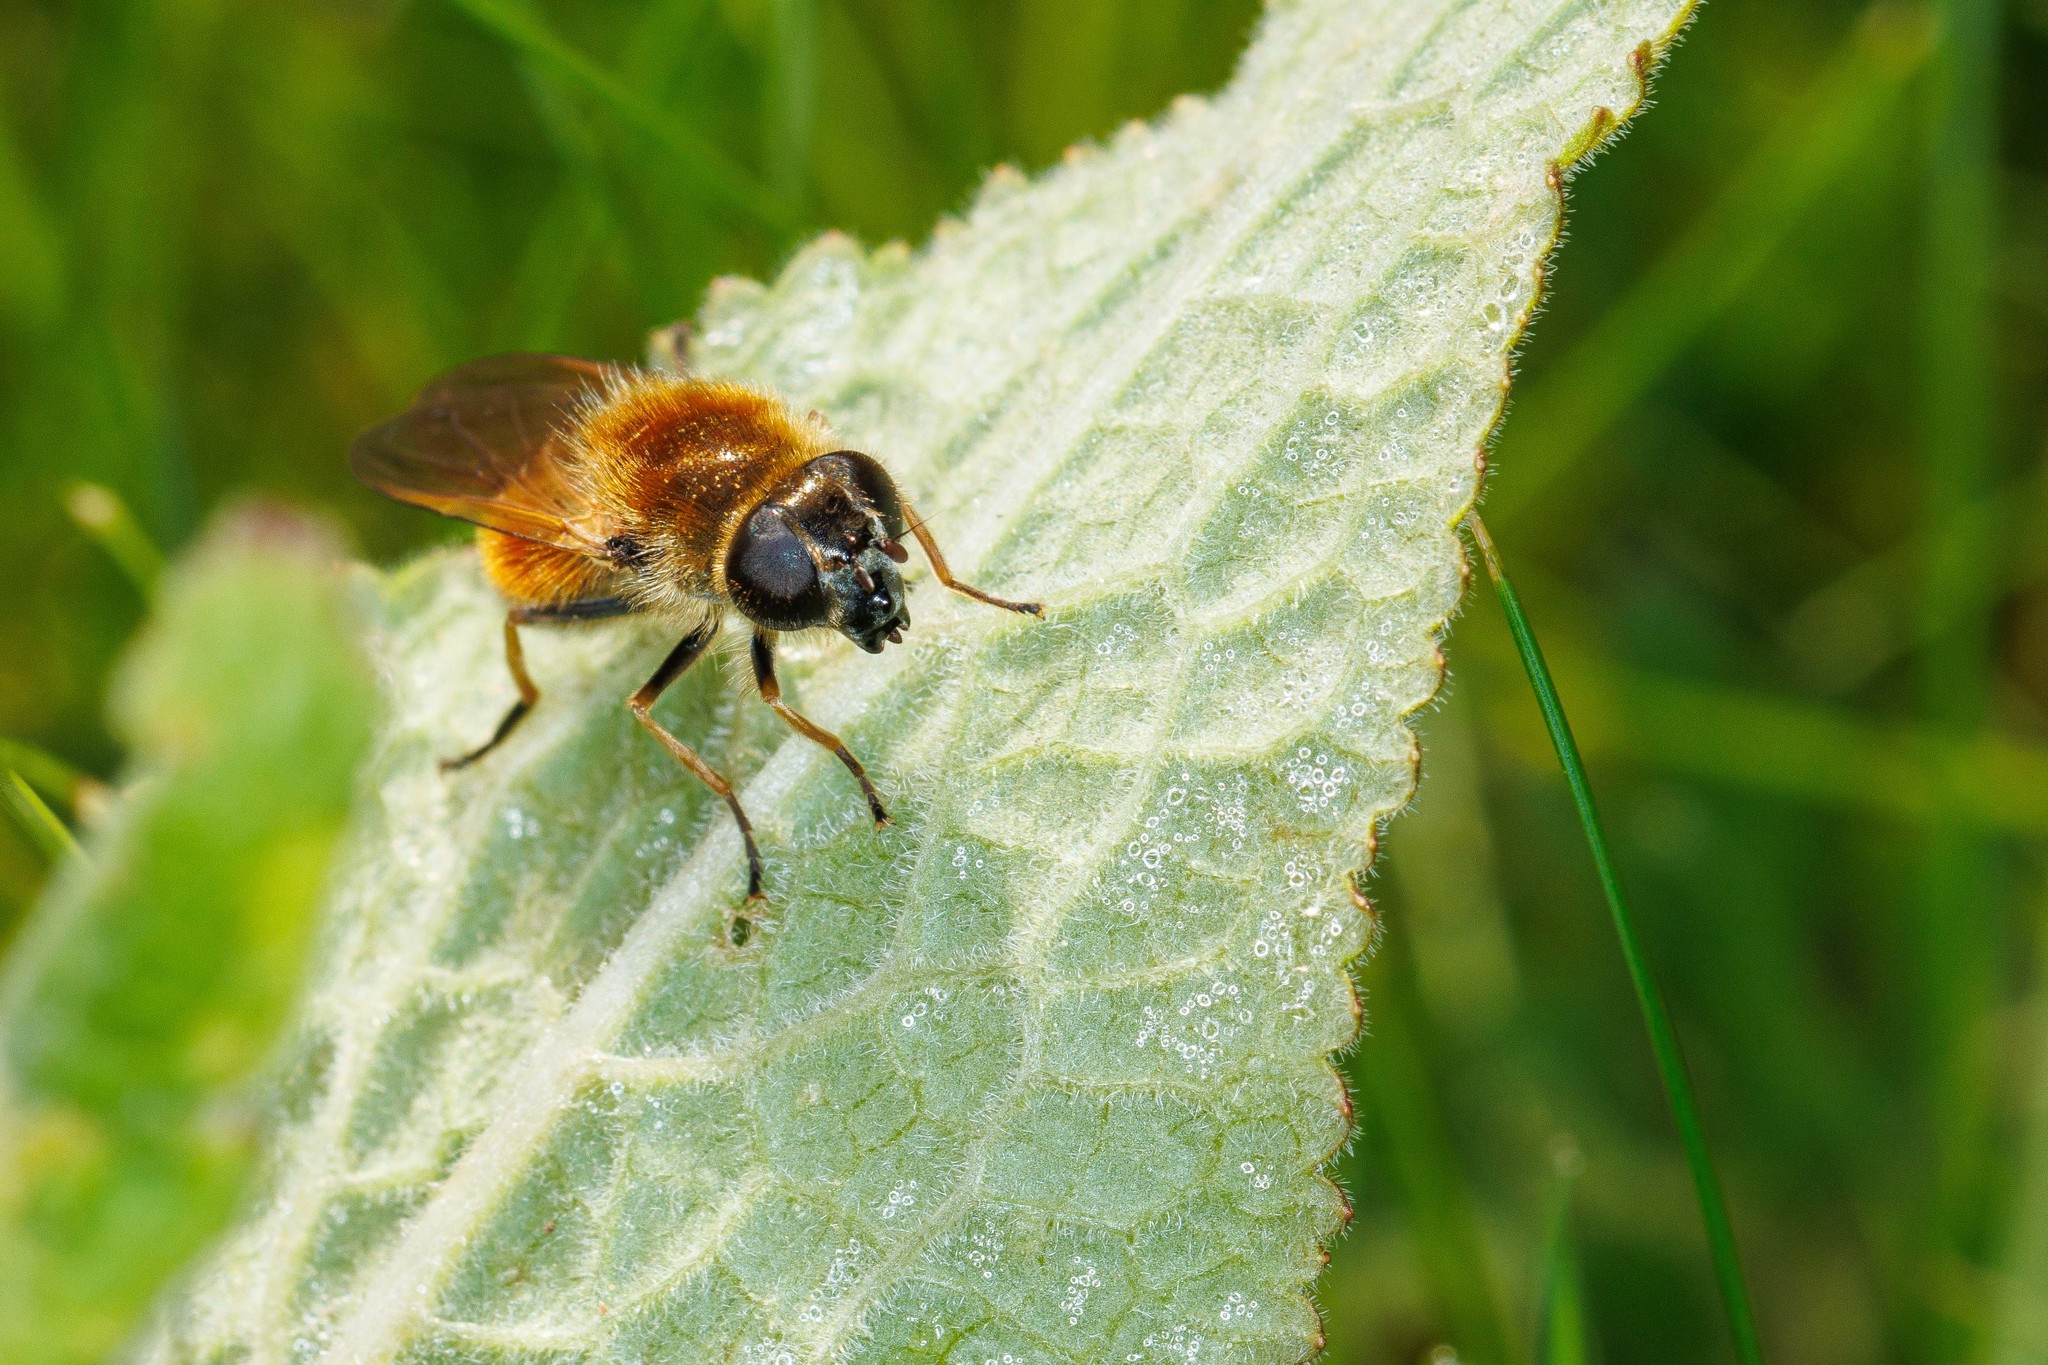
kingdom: Animalia
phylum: Arthropoda
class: Insecta
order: Diptera
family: Syrphidae
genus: Cheilosia
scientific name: Cheilosia corydon
